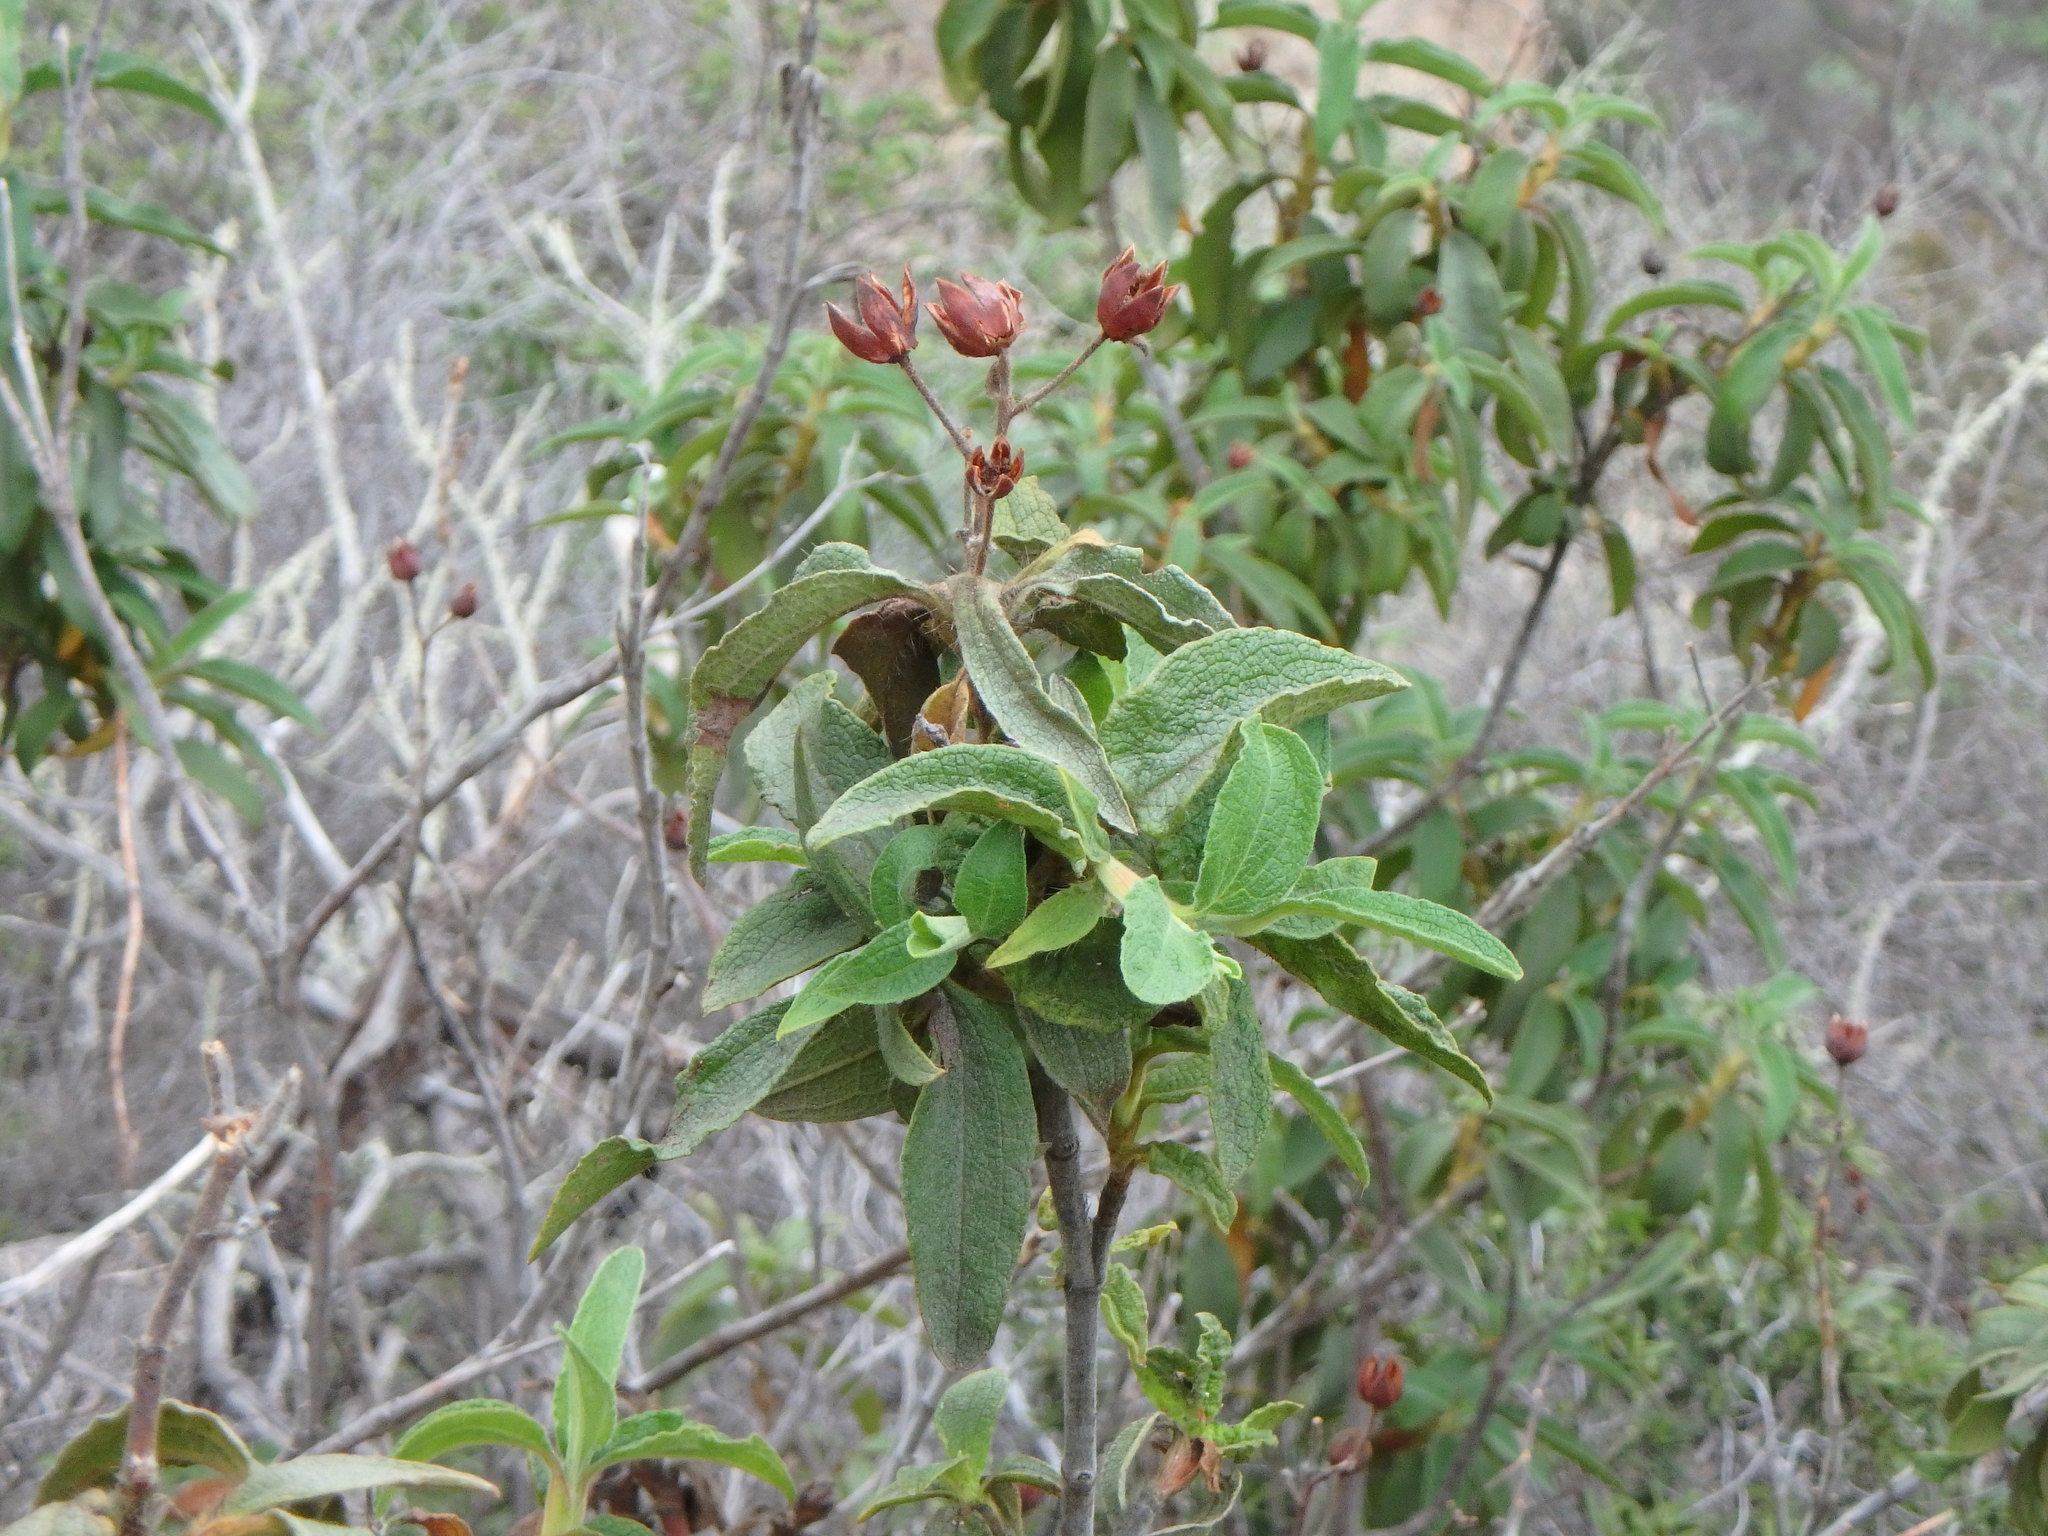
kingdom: Plantae
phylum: Tracheophyta
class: Magnoliopsida
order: Malvales
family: Cistaceae
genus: Cistus
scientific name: Cistus symphytifolius
